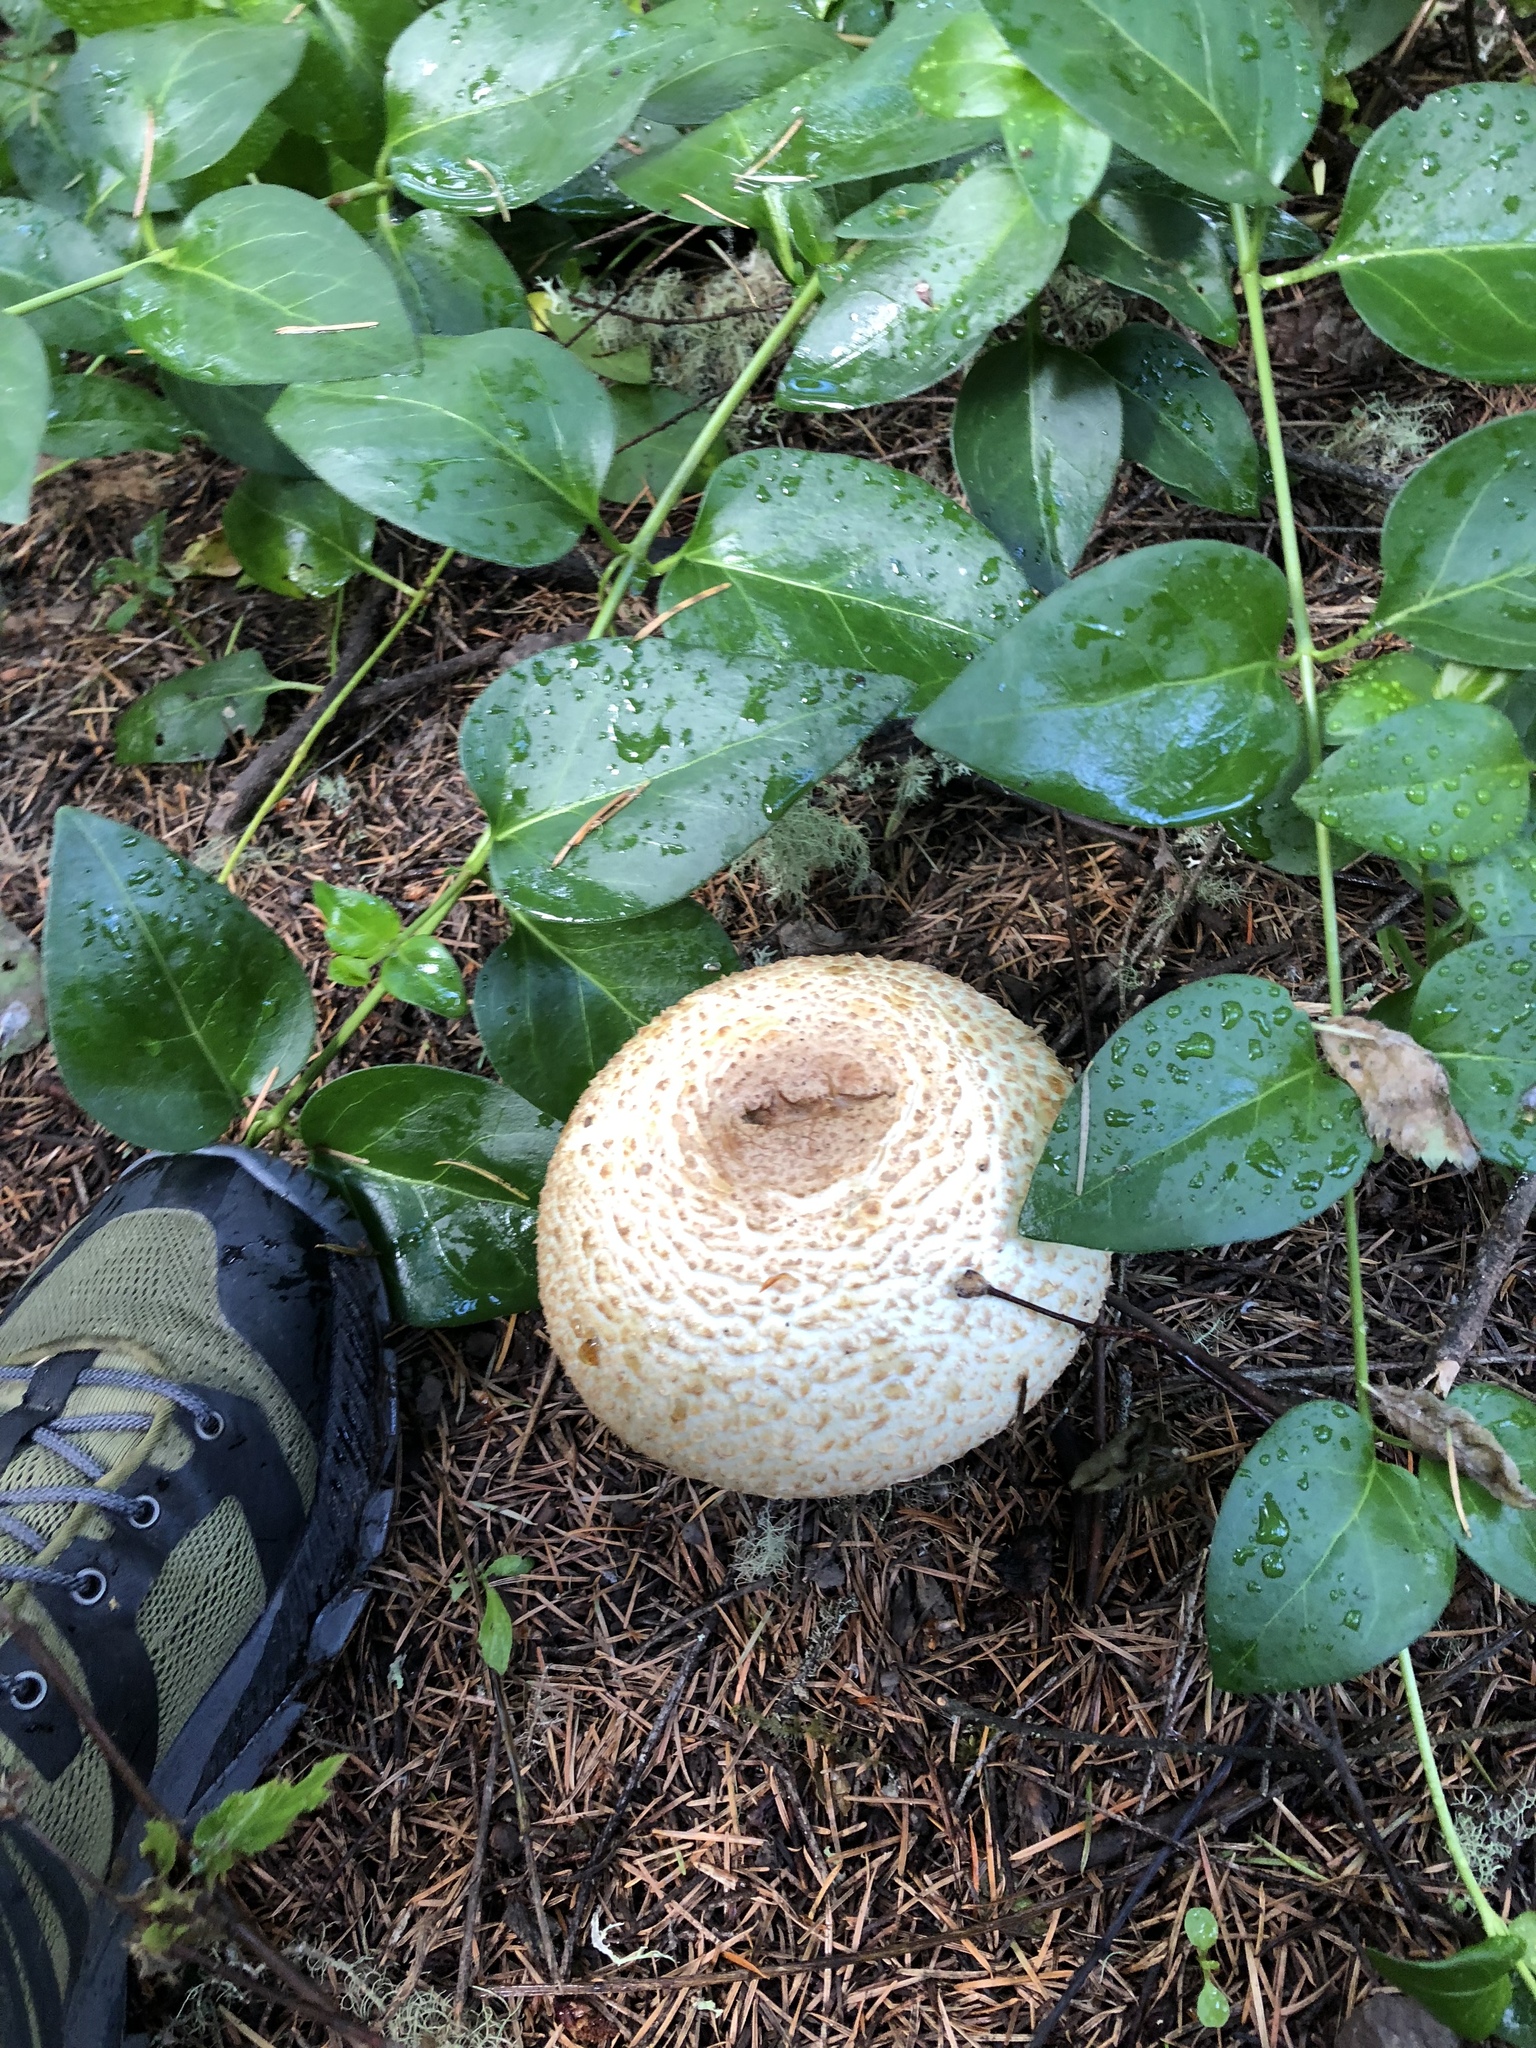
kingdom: Fungi
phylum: Basidiomycota
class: Agaricomycetes
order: Agaricales
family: Agaricaceae
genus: Agaricus
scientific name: Agaricus augustus
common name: Prince
